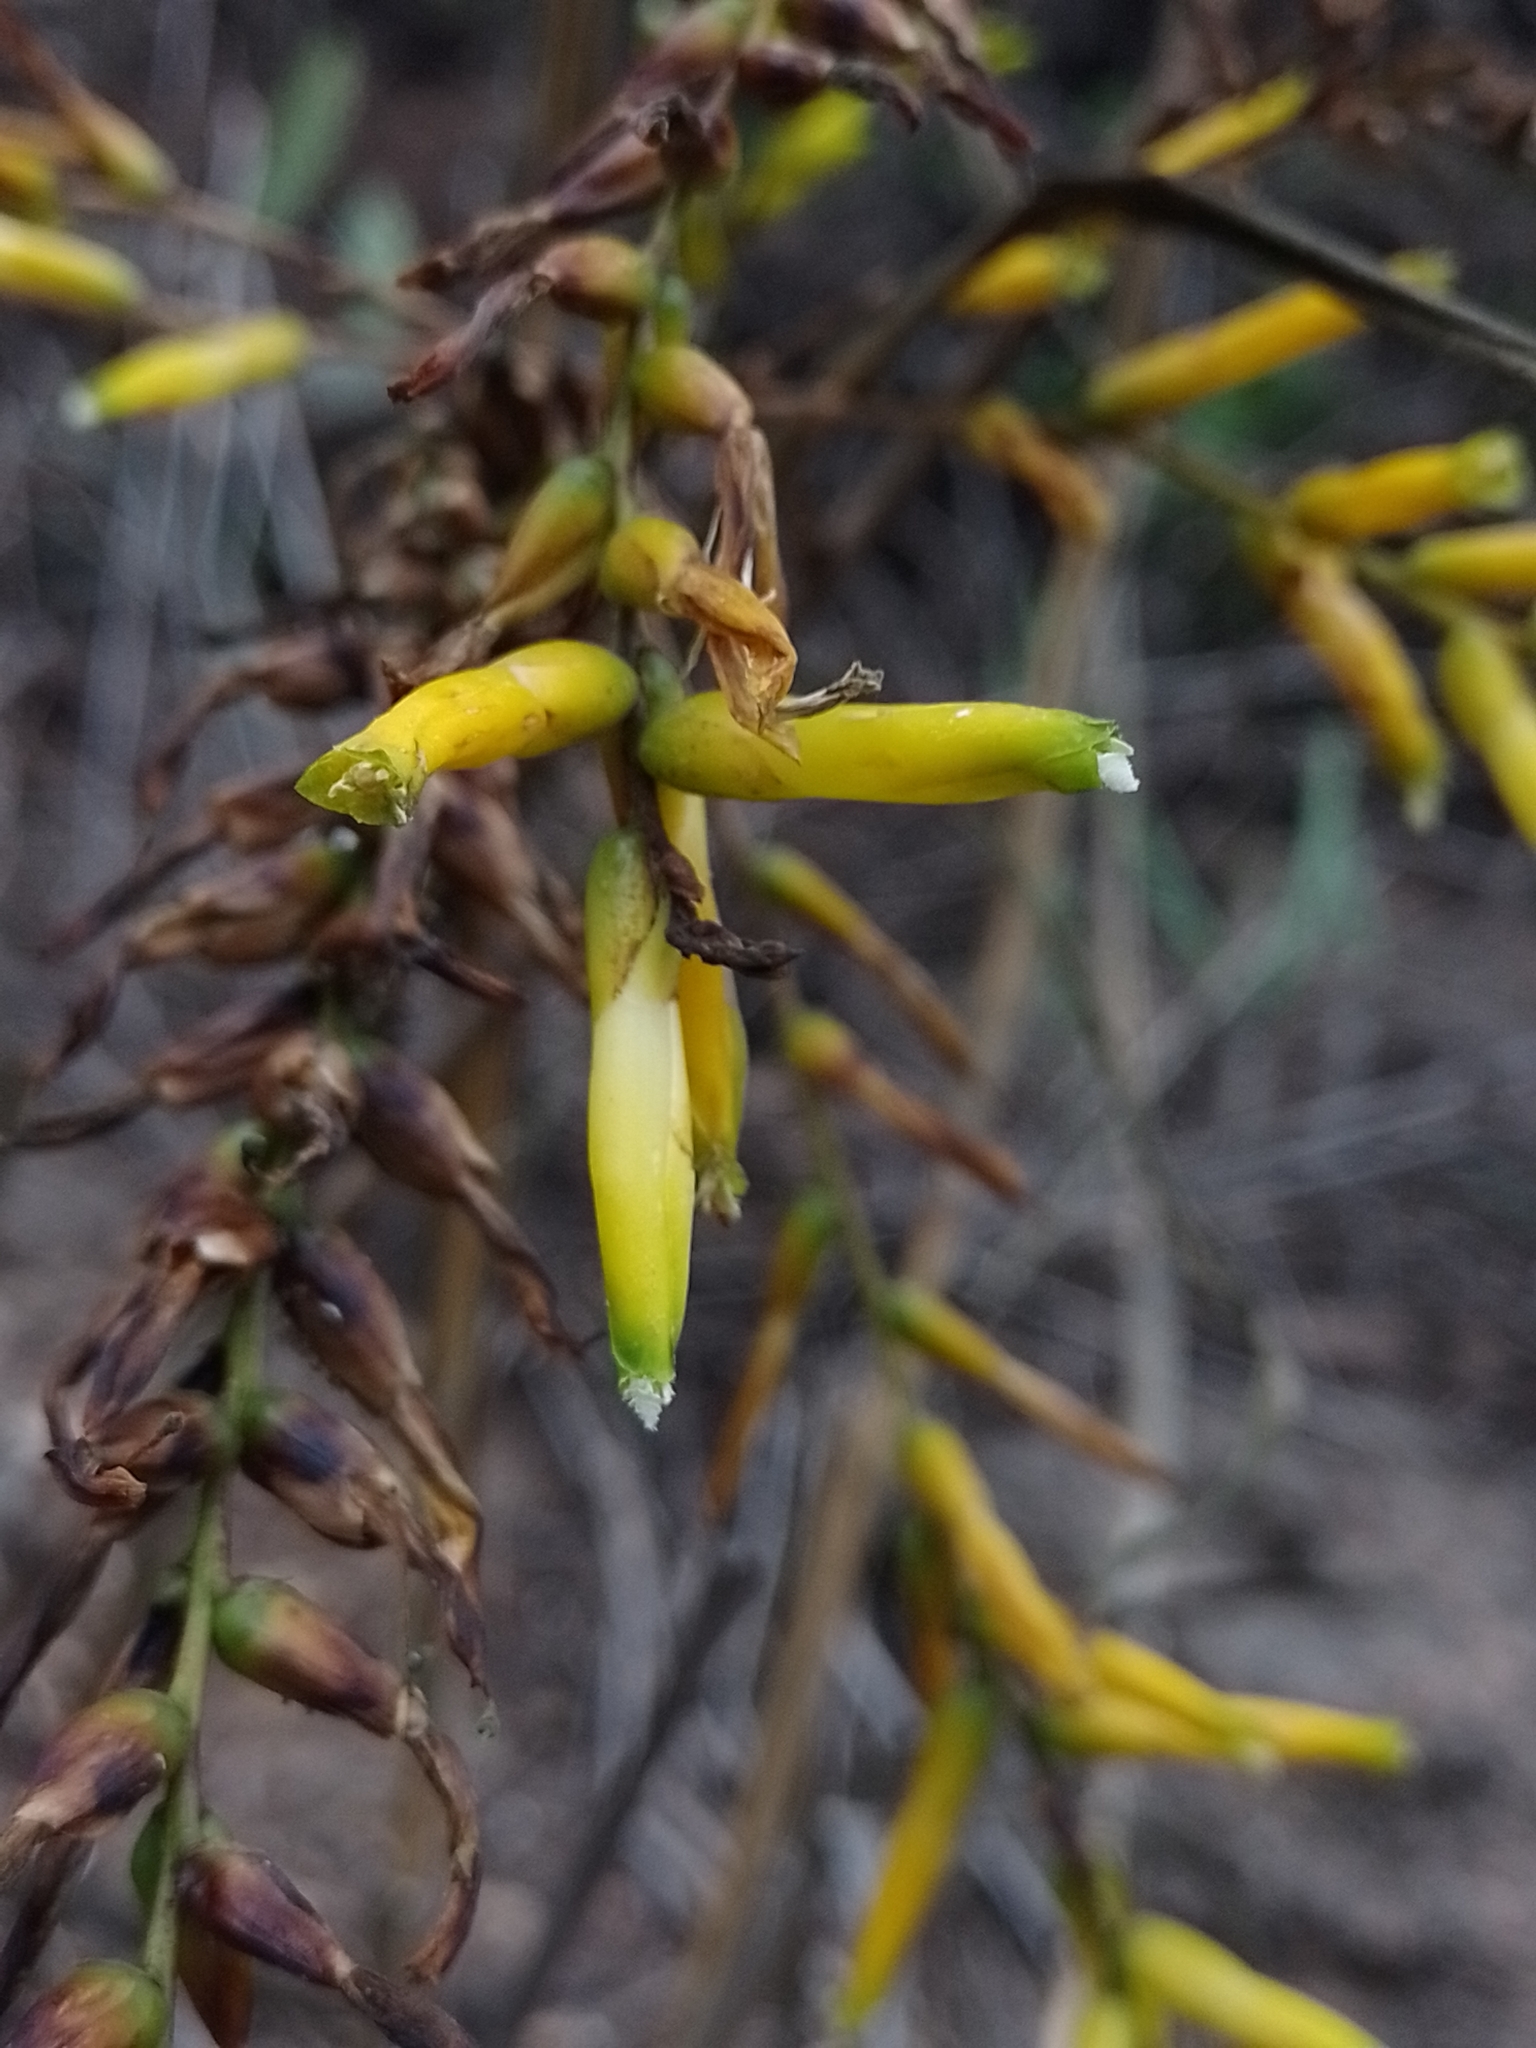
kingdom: Plantae
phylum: Tracheophyta
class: Liliopsida
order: Poales
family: Bromeliaceae
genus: Deuterocohnia
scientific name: Deuterocohnia longipetala
